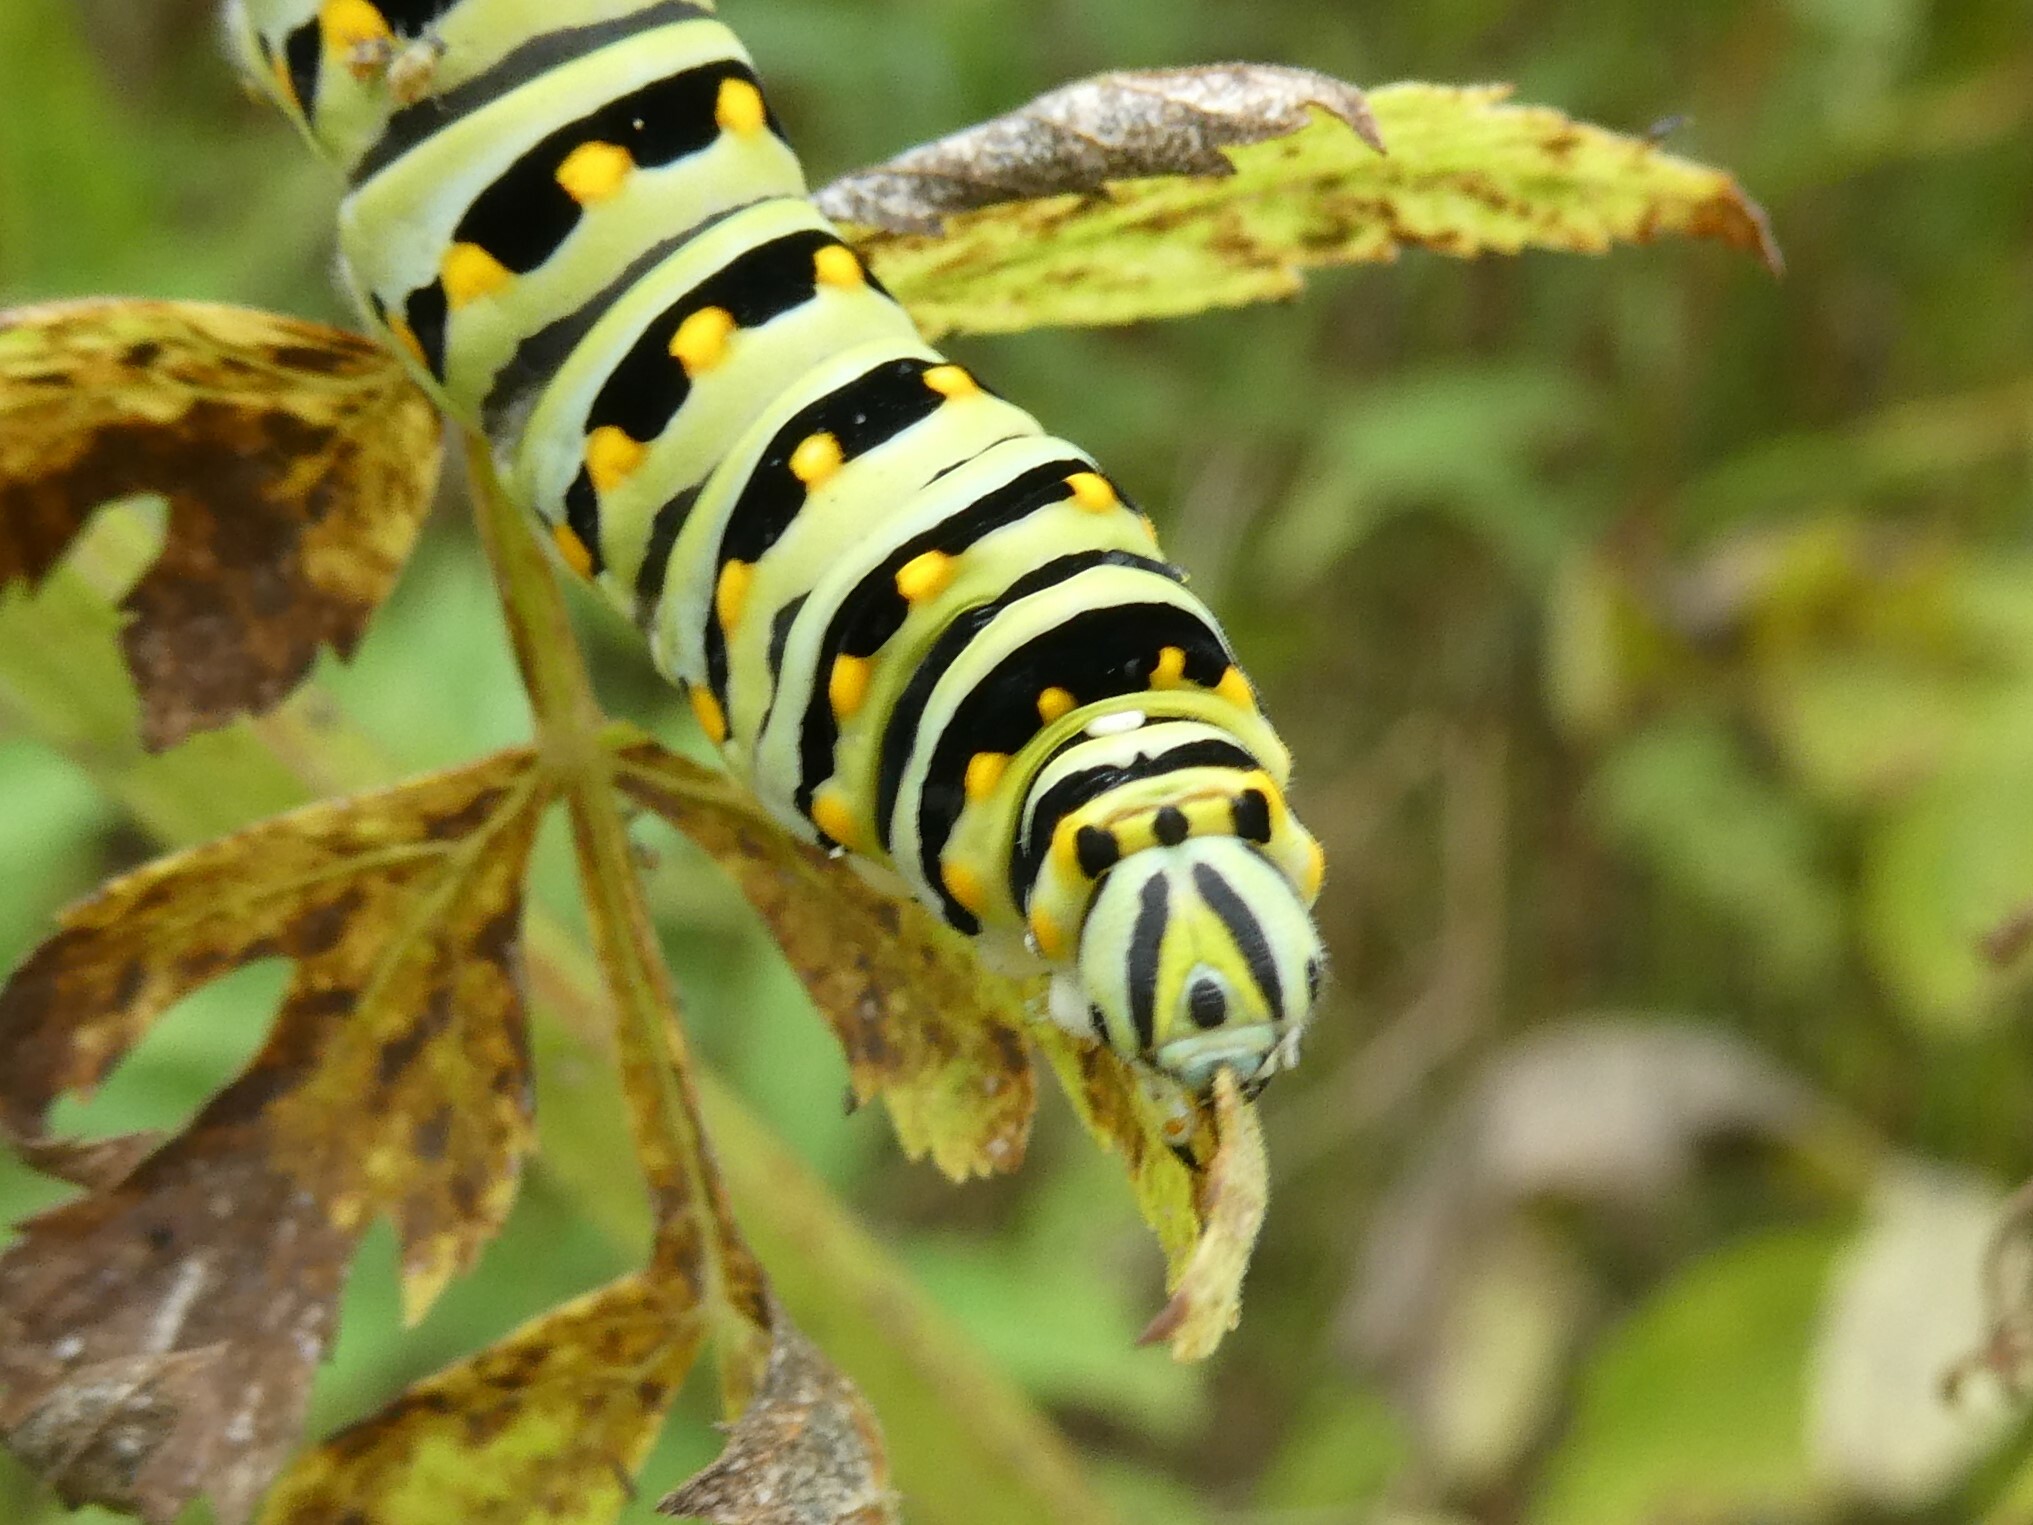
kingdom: Animalia
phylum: Arthropoda
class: Insecta
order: Lepidoptera
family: Papilionidae
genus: Papilio
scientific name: Papilio polyxenes
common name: Black swallowtail
